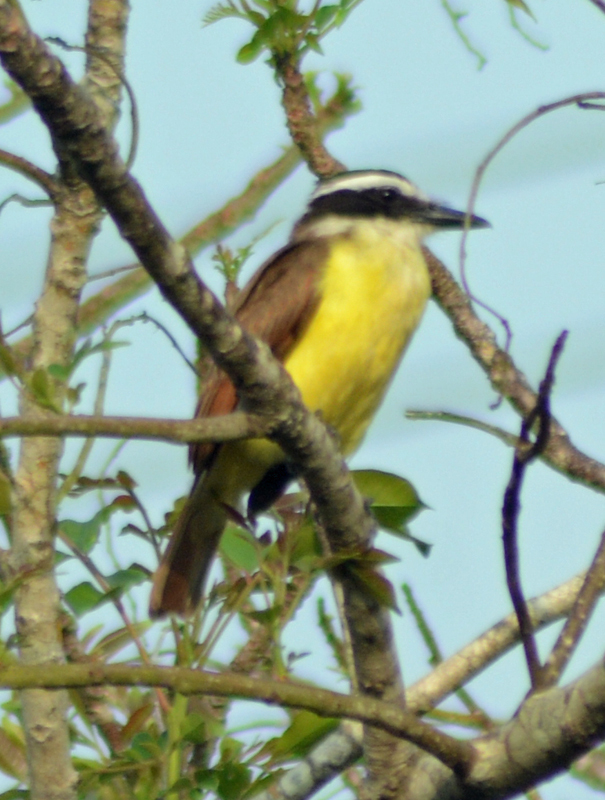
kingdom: Animalia
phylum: Chordata
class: Aves
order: Passeriformes
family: Tyrannidae
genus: Pitangus
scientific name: Pitangus sulphuratus
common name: Great kiskadee
